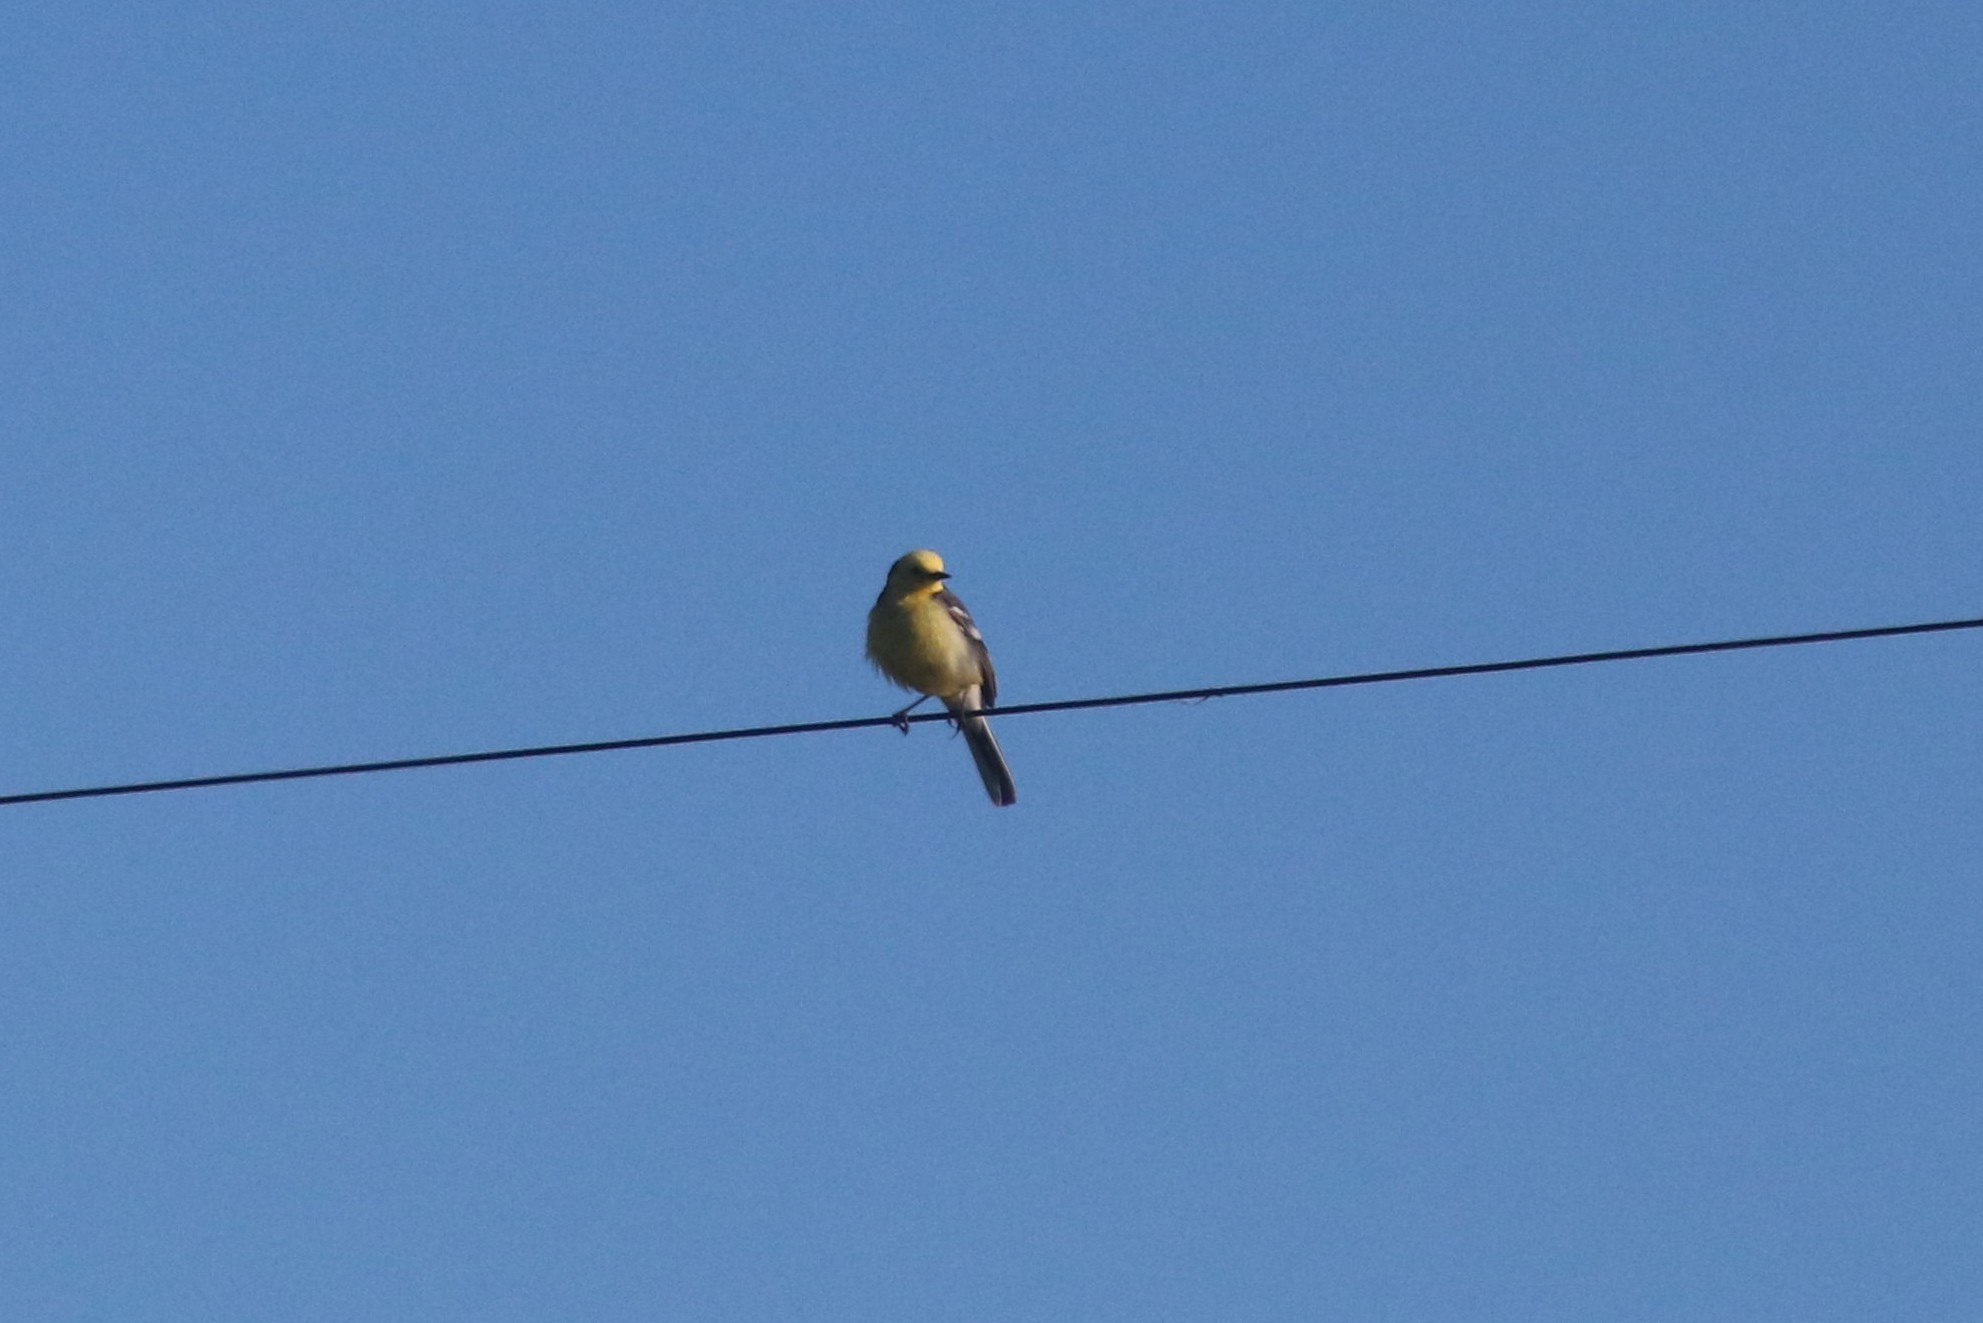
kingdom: Animalia
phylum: Chordata
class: Aves
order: Passeriformes
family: Motacillidae
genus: Motacilla
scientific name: Motacilla citreola
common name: Citrine wagtail
